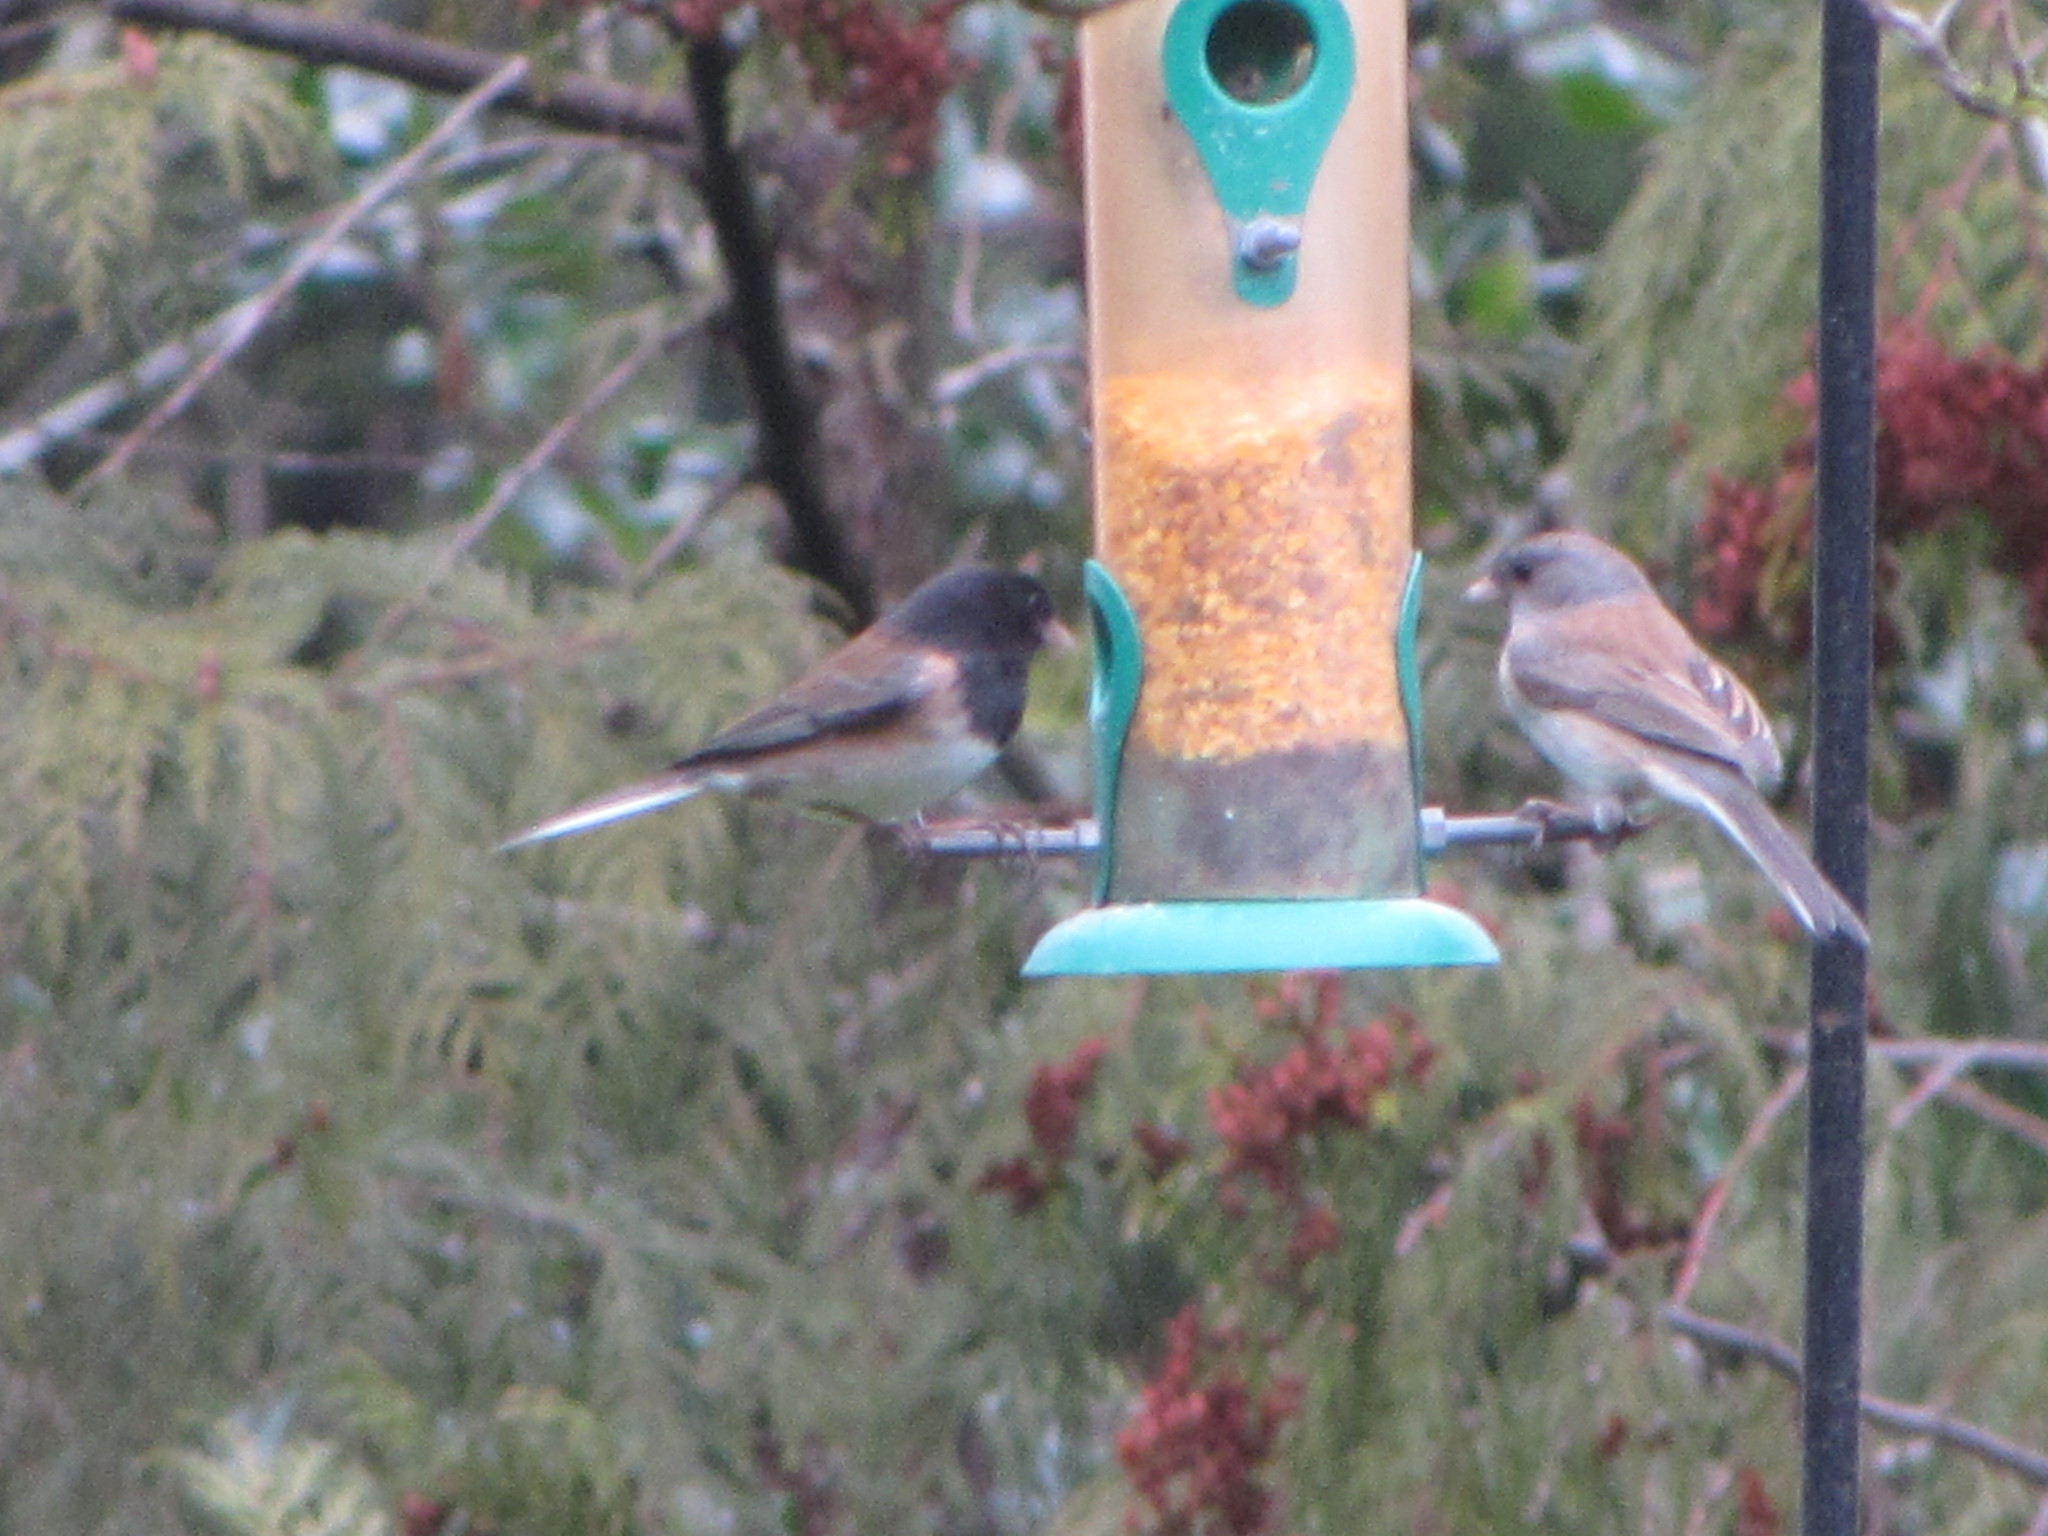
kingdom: Animalia
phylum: Chordata
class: Aves
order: Passeriformes
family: Passerellidae
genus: Junco
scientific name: Junco hyemalis
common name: Dark-eyed junco
